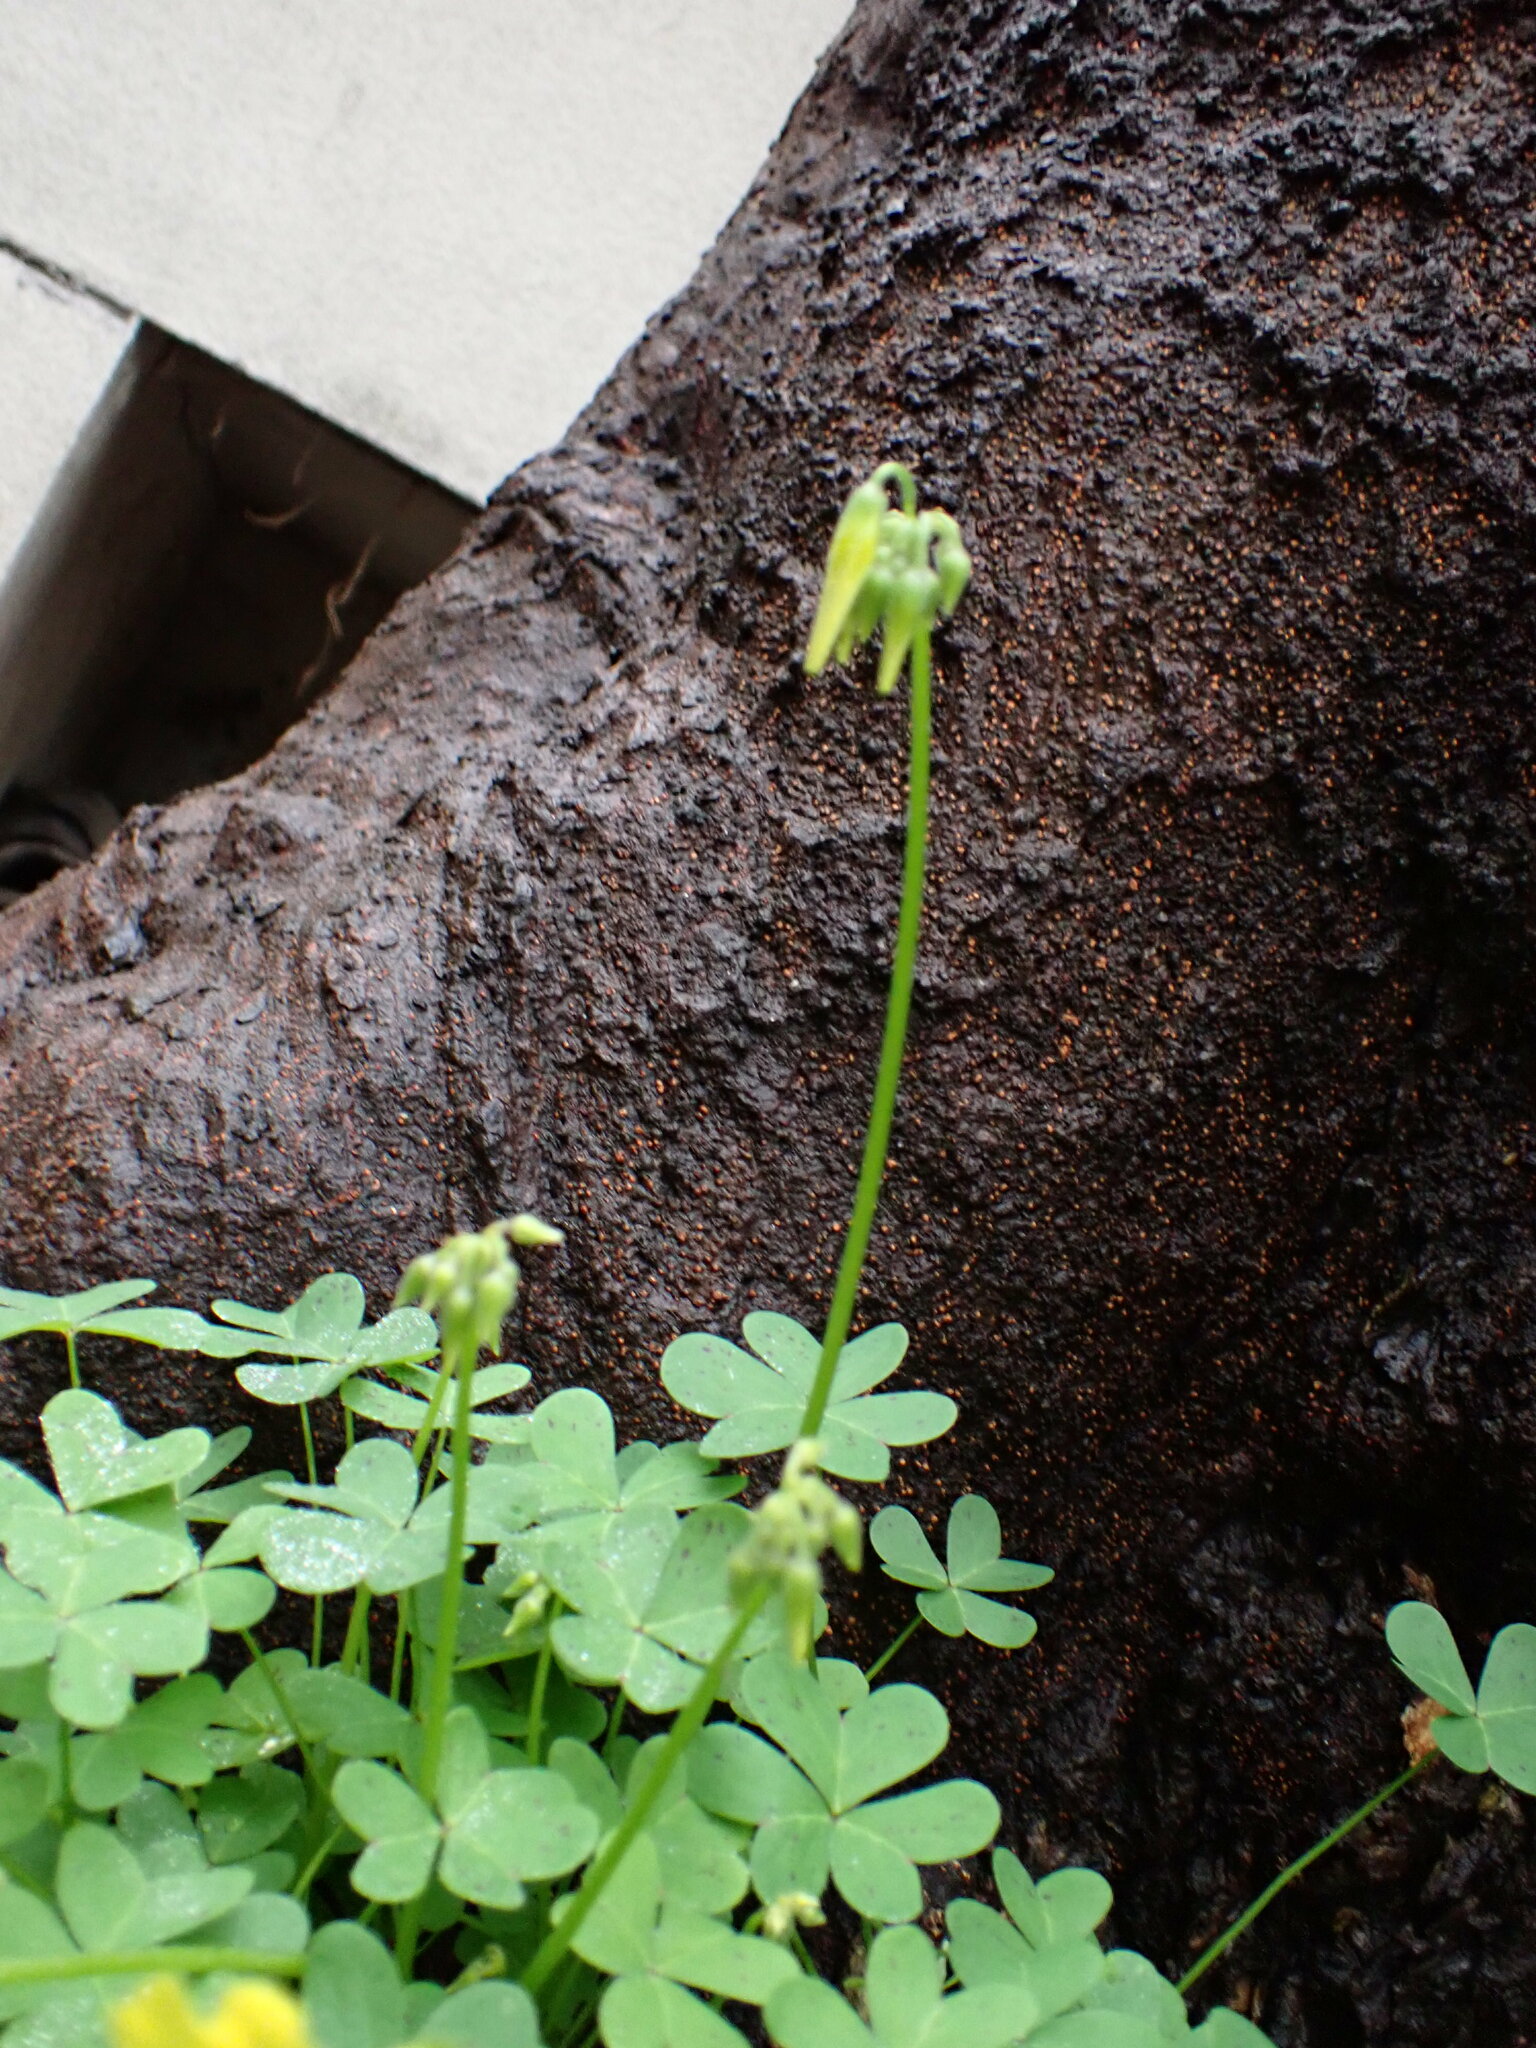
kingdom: Plantae
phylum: Tracheophyta
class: Magnoliopsida
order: Oxalidales
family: Oxalidaceae
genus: Oxalis
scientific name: Oxalis pes-caprae
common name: Bermuda-buttercup
